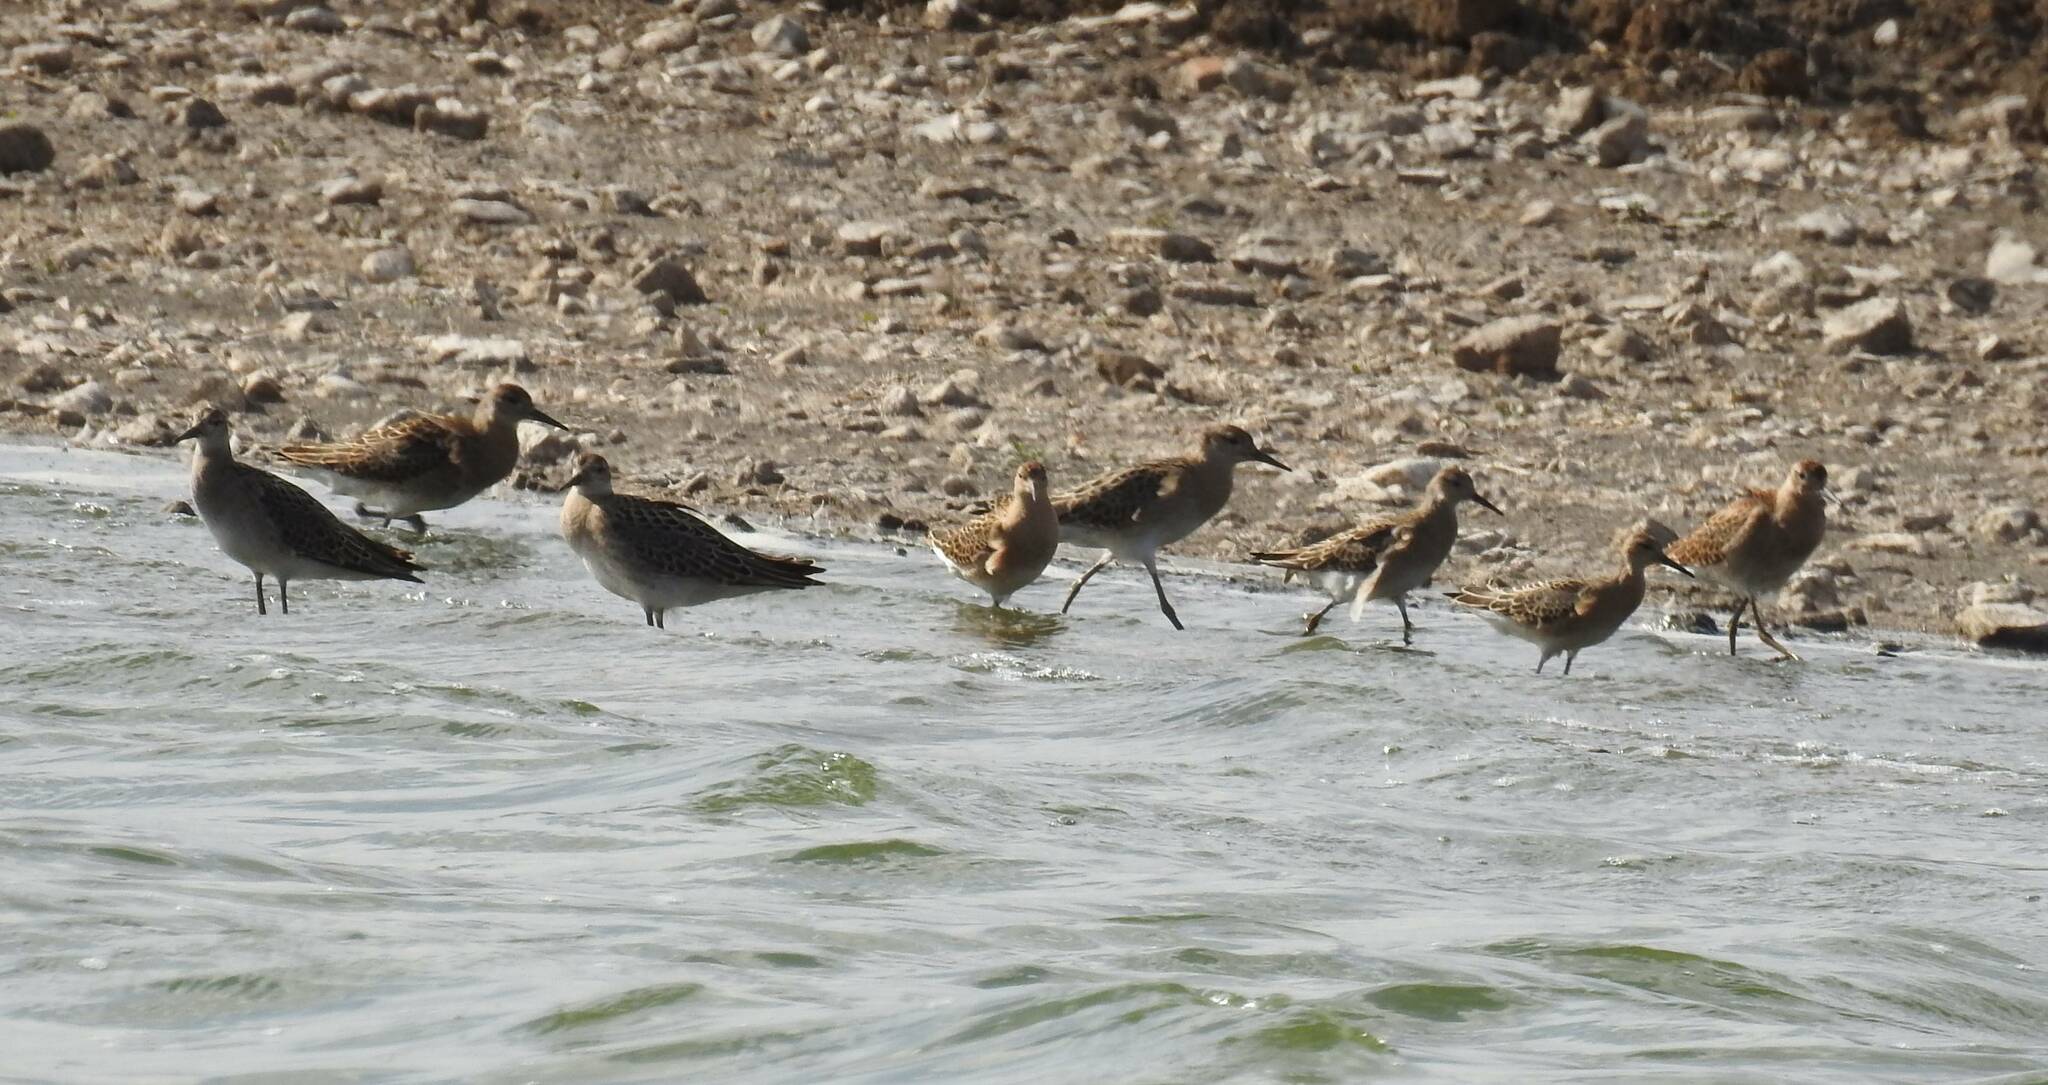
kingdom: Animalia
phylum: Chordata
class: Aves
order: Charadriiformes
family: Scolopacidae
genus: Calidris
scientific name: Calidris pugnax
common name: Ruff
